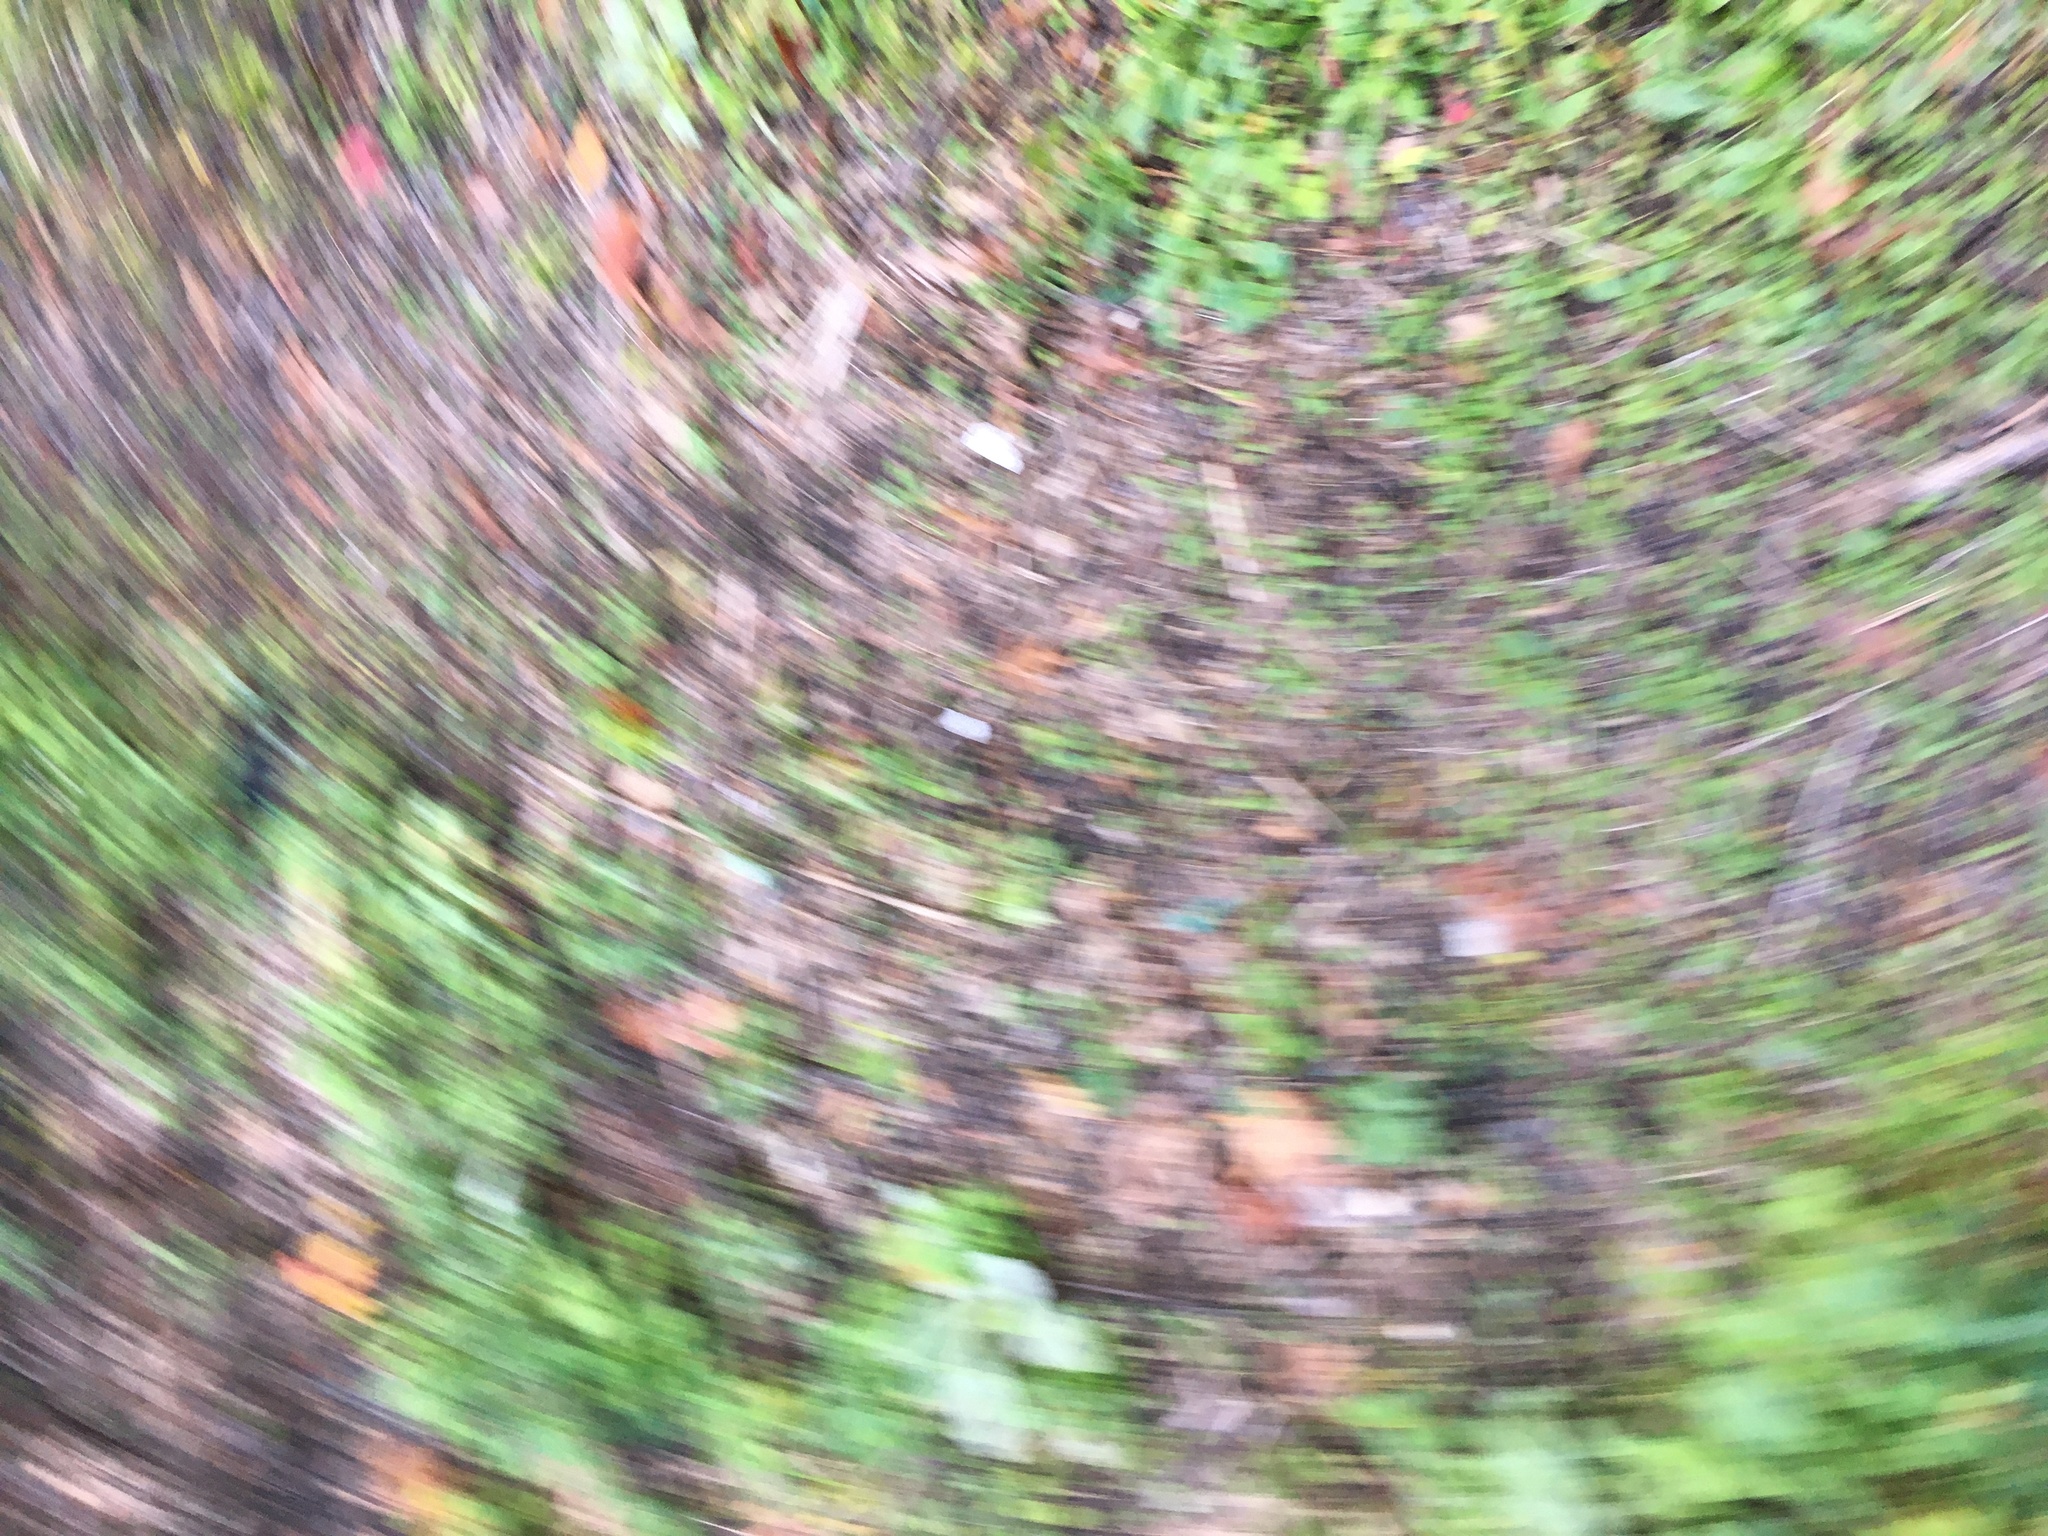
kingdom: Plantae
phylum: Tracheophyta
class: Magnoliopsida
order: Asterales
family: Asteraceae
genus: Artemisia
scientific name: Artemisia vulgaris
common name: Mugwort
